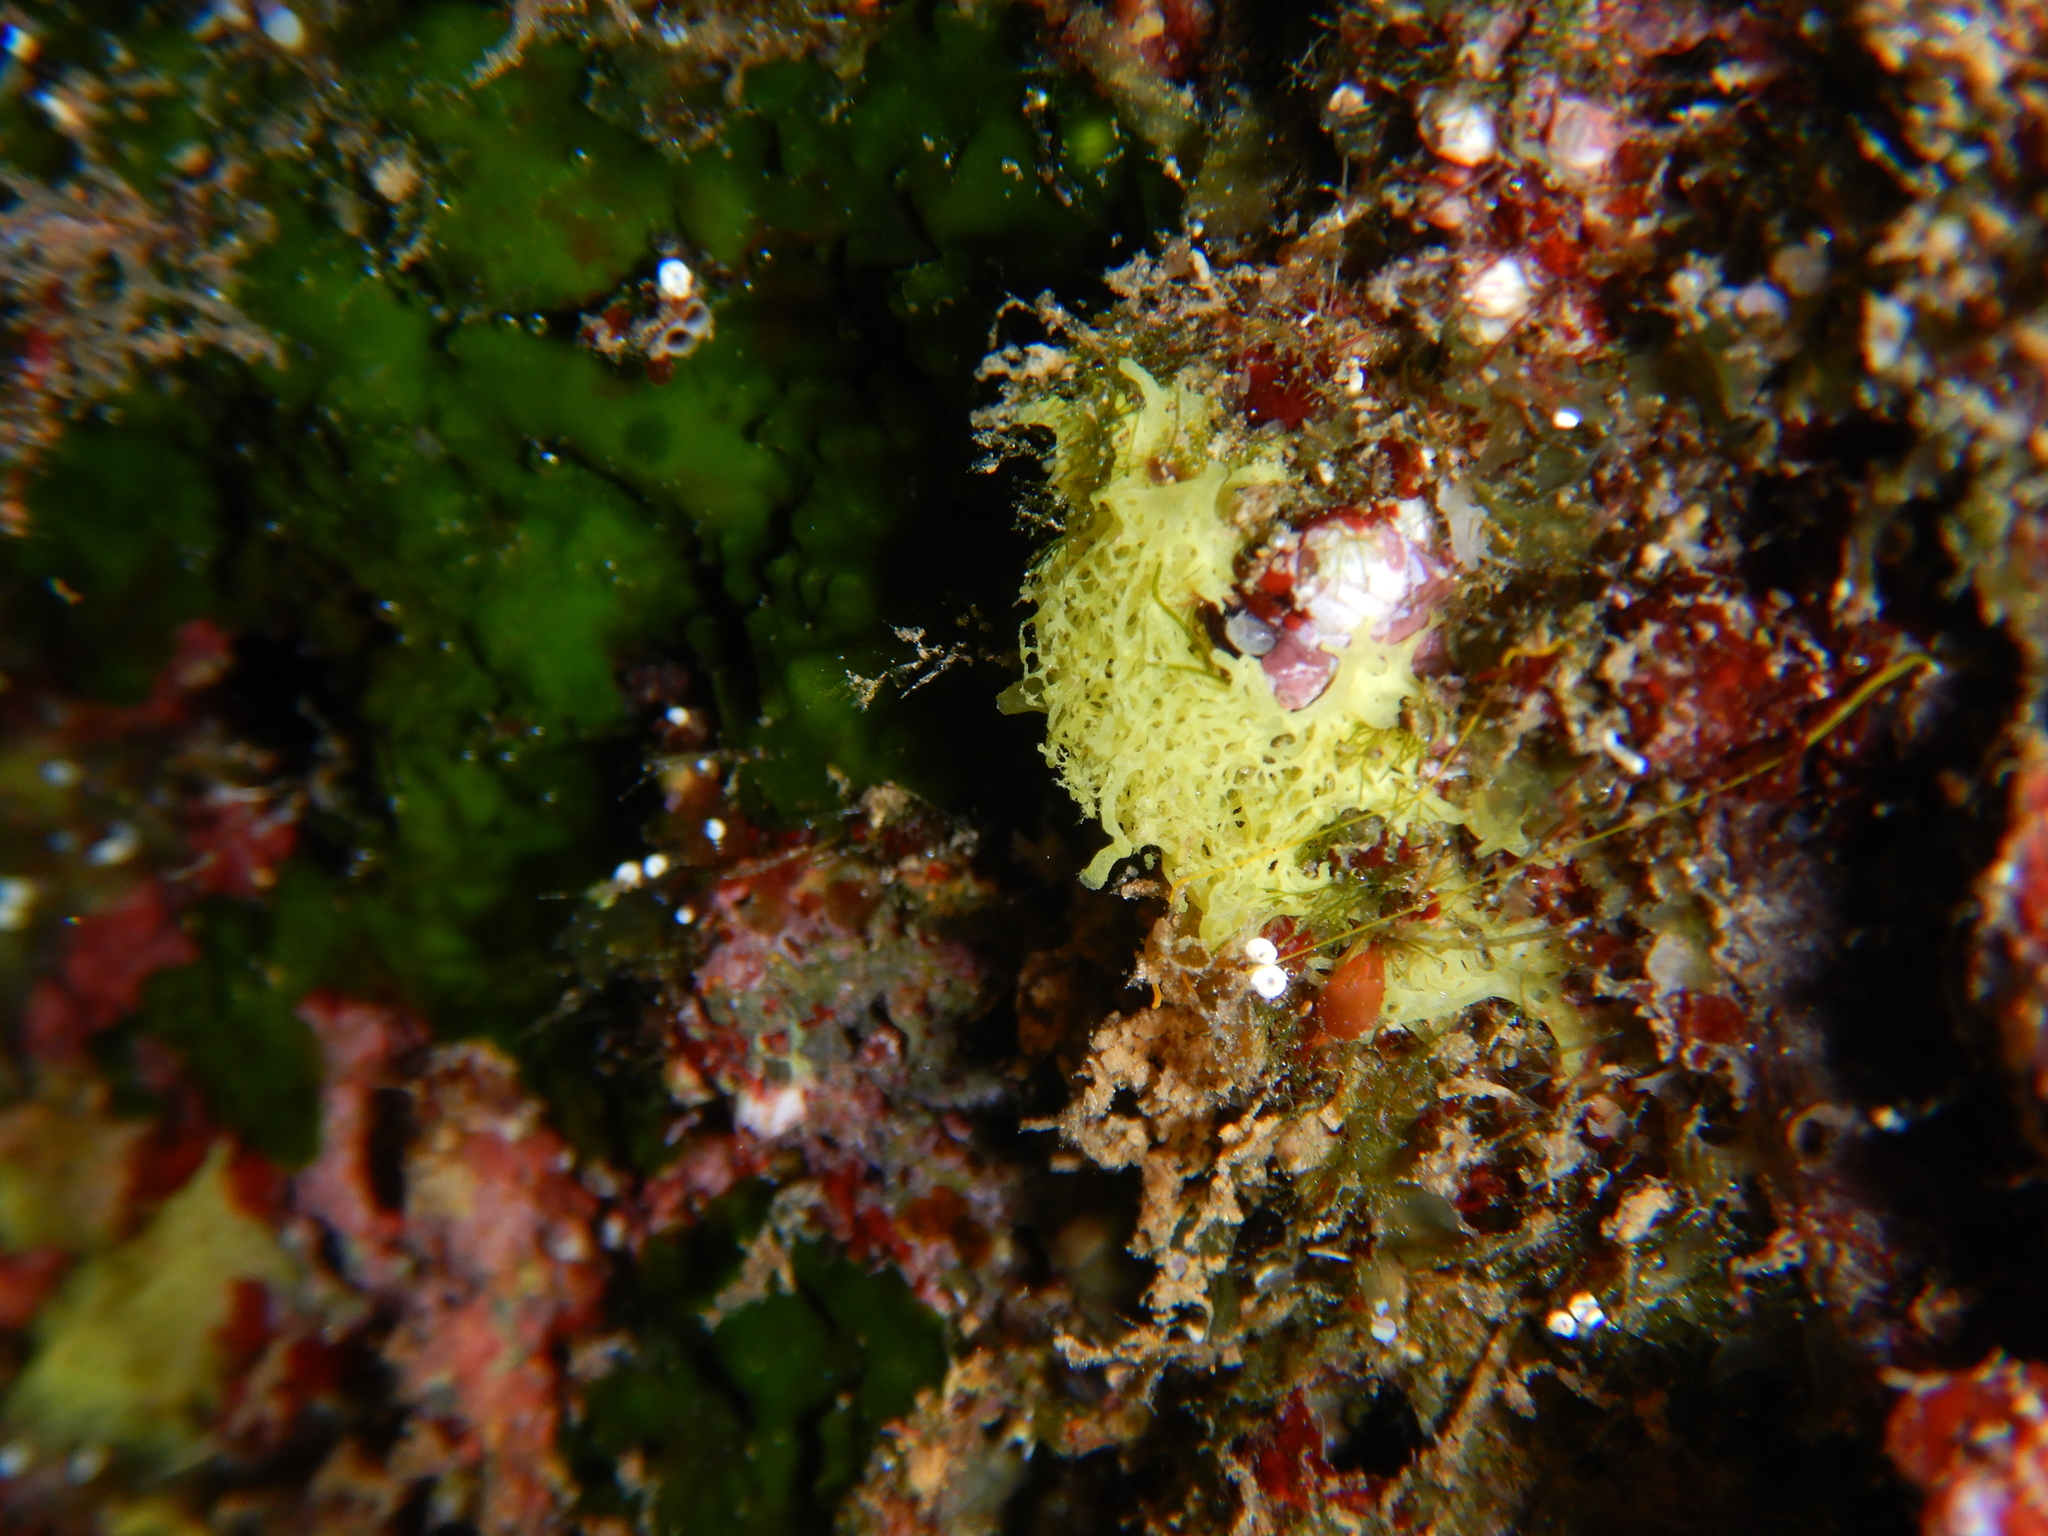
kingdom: Animalia
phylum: Porifera
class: Calcarea
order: Clathrinida
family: Clathrinidae
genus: Clathrina
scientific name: Clathrina clathrus
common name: Yellow clathrina
